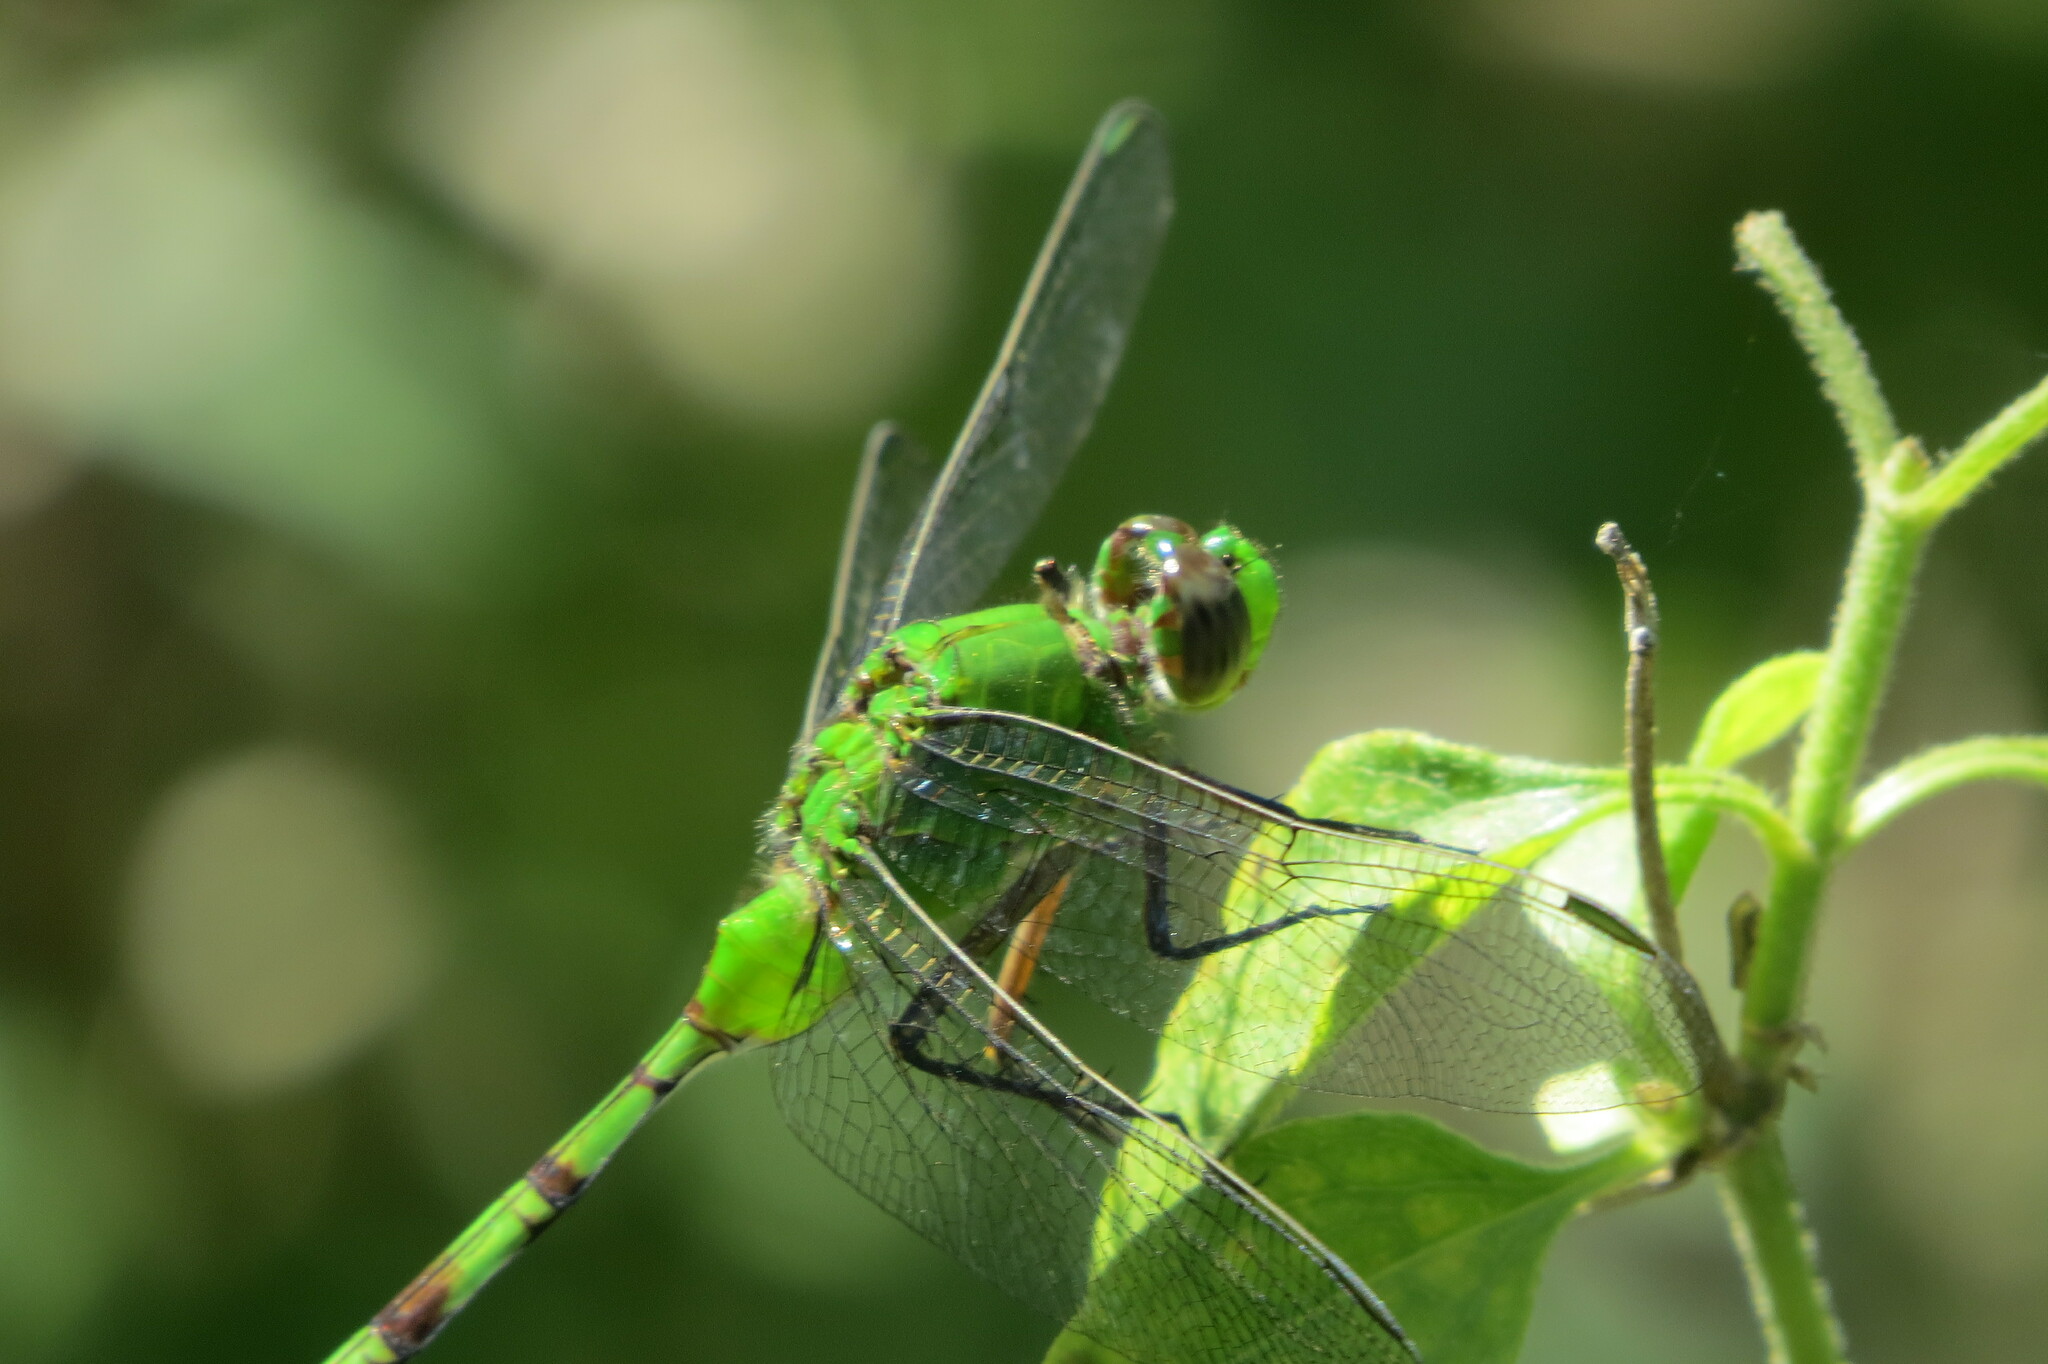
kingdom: Animalia
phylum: Arthropoda
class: Insecta
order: Odonata
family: Libellulidae
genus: Erythemis
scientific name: Erythemis vesiculosa
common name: Great pondhawk
